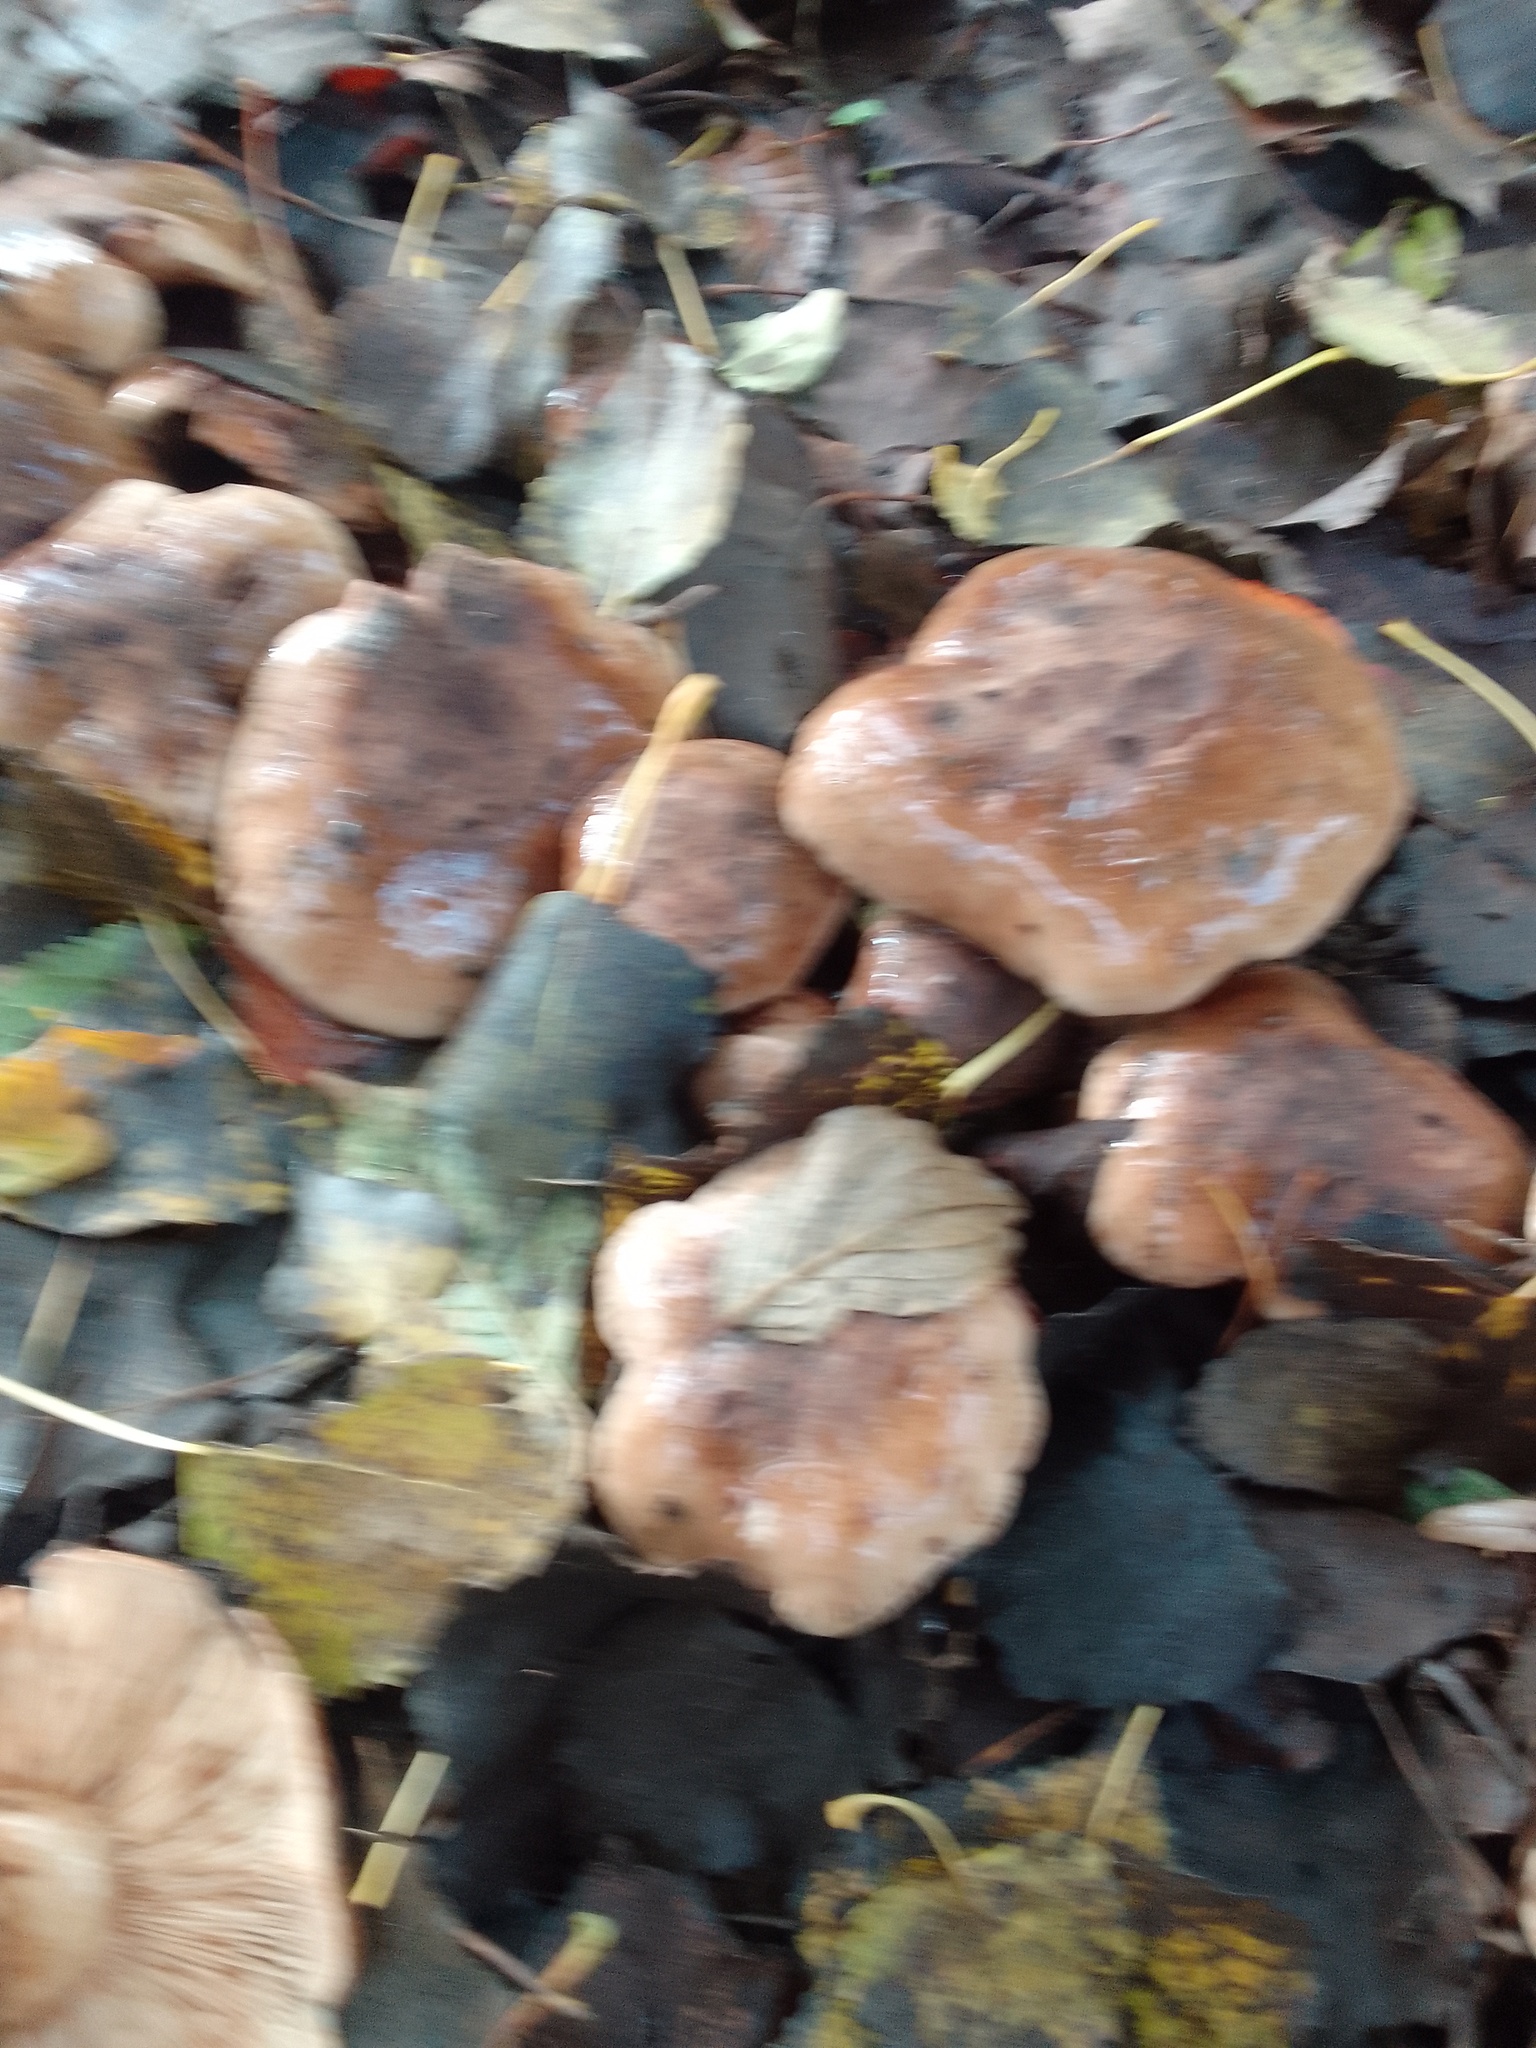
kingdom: Fungi
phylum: Basidiomycota
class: Agaricomycetes
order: Agaricales
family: Tricholomataceae
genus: Tricholoma
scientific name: Tricholoma populinum
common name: Poplar knight
